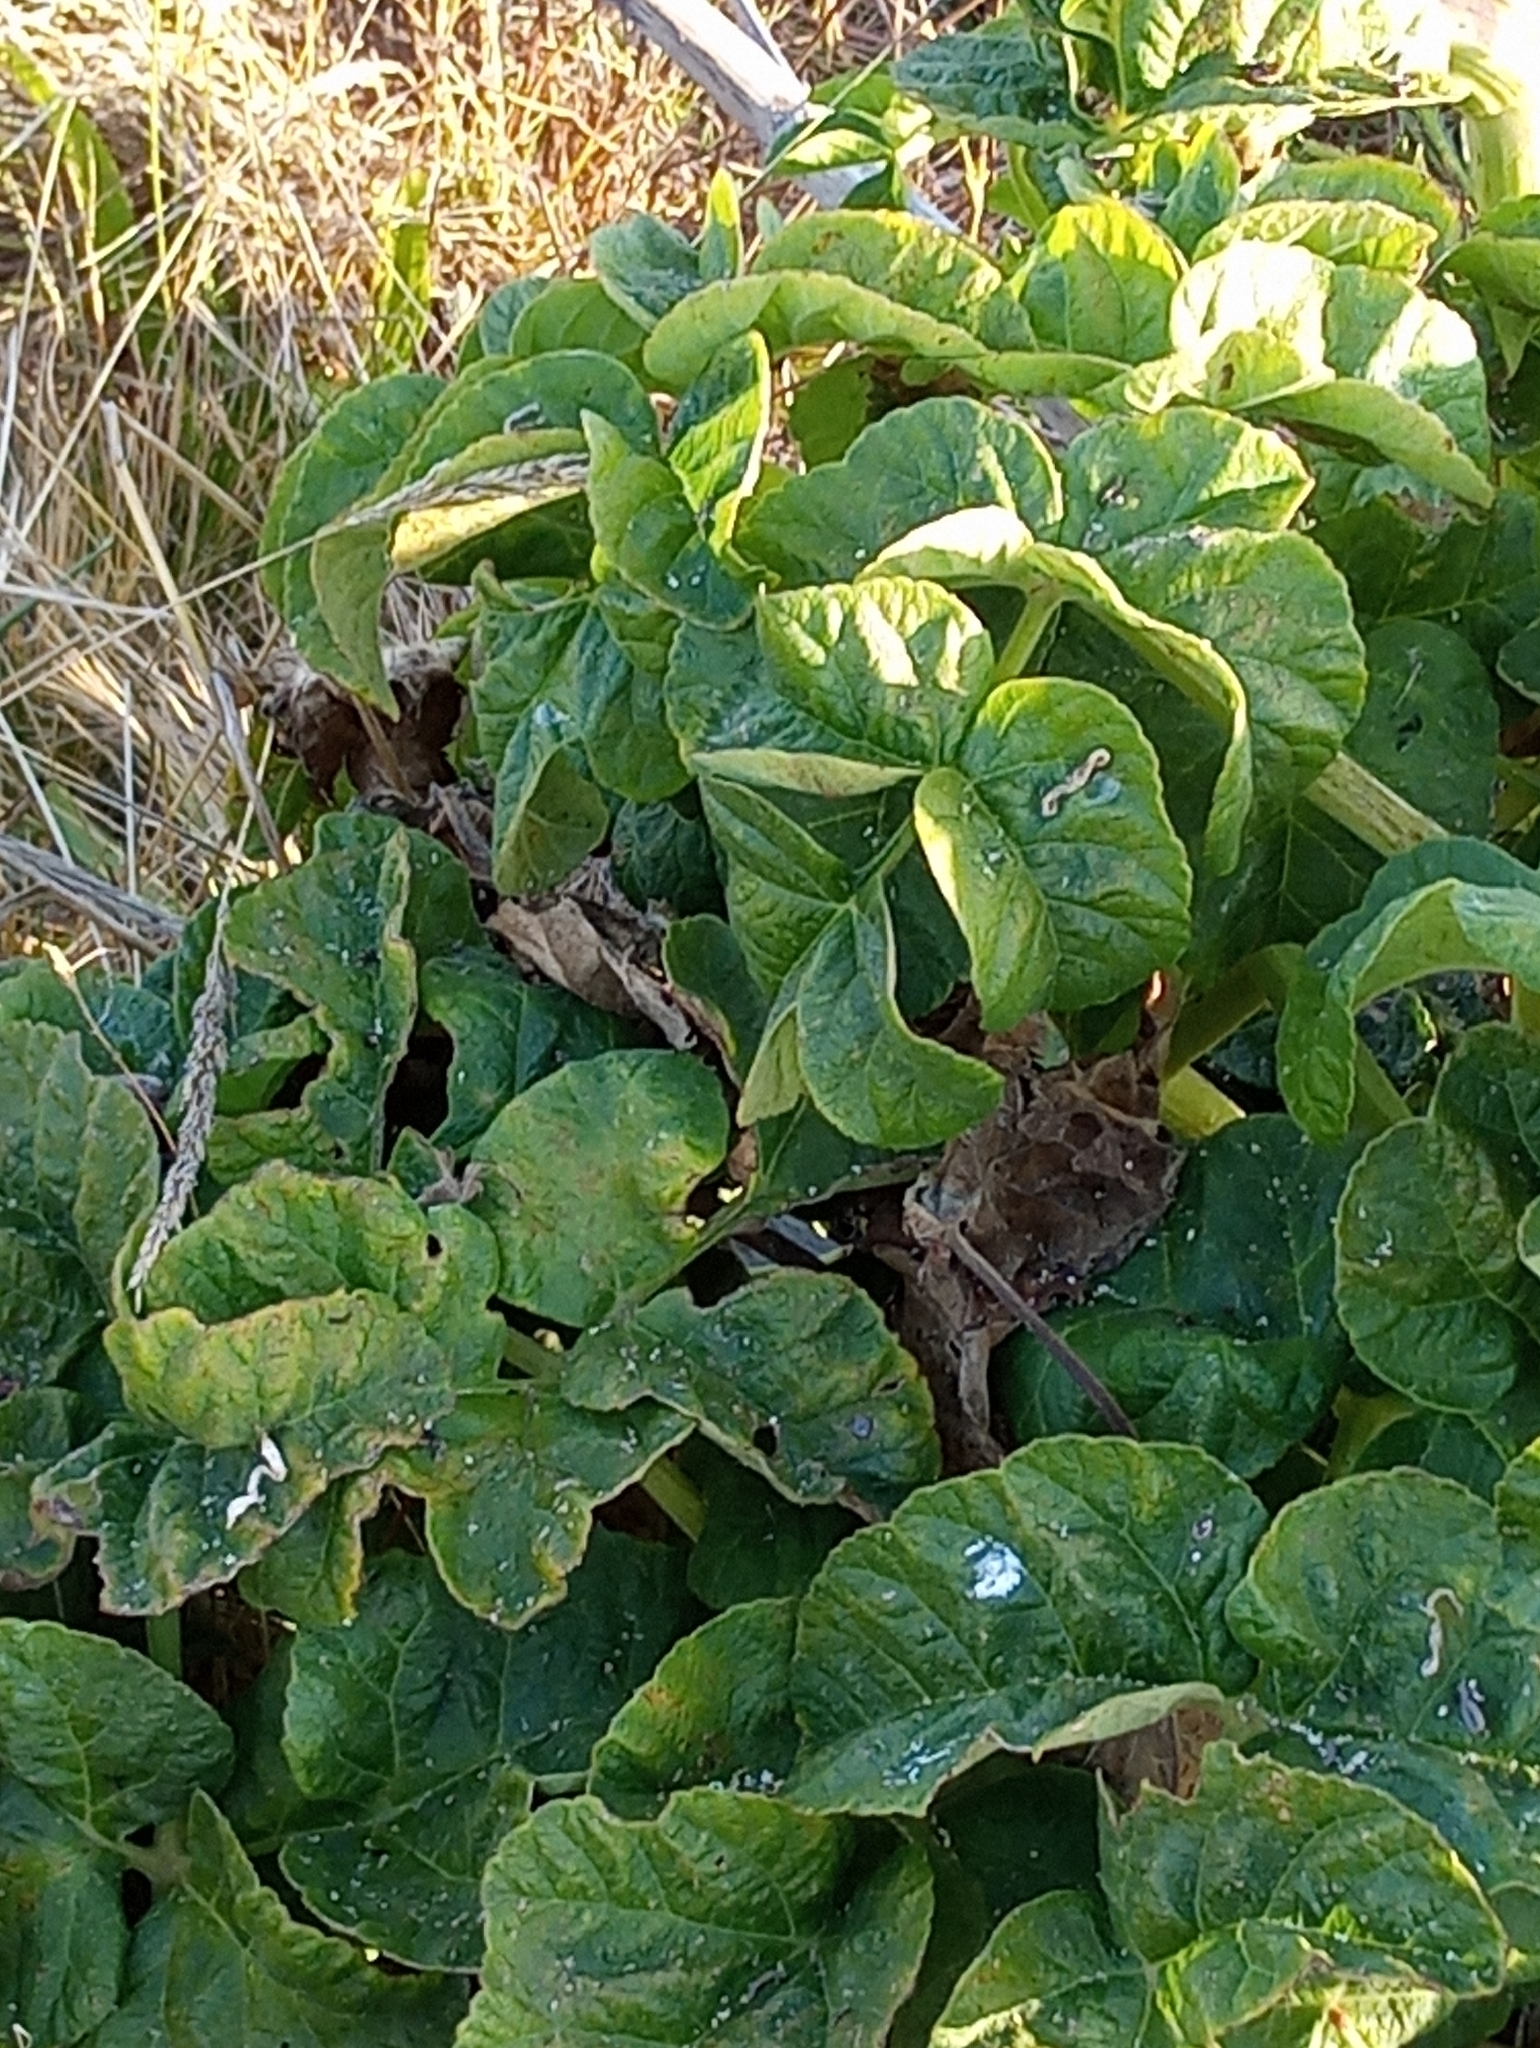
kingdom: Plantae
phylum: Tracheophyta
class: Magnoliopsida
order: Apiales
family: Apiaceae
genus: Angelica
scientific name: Angelica hendersonii
